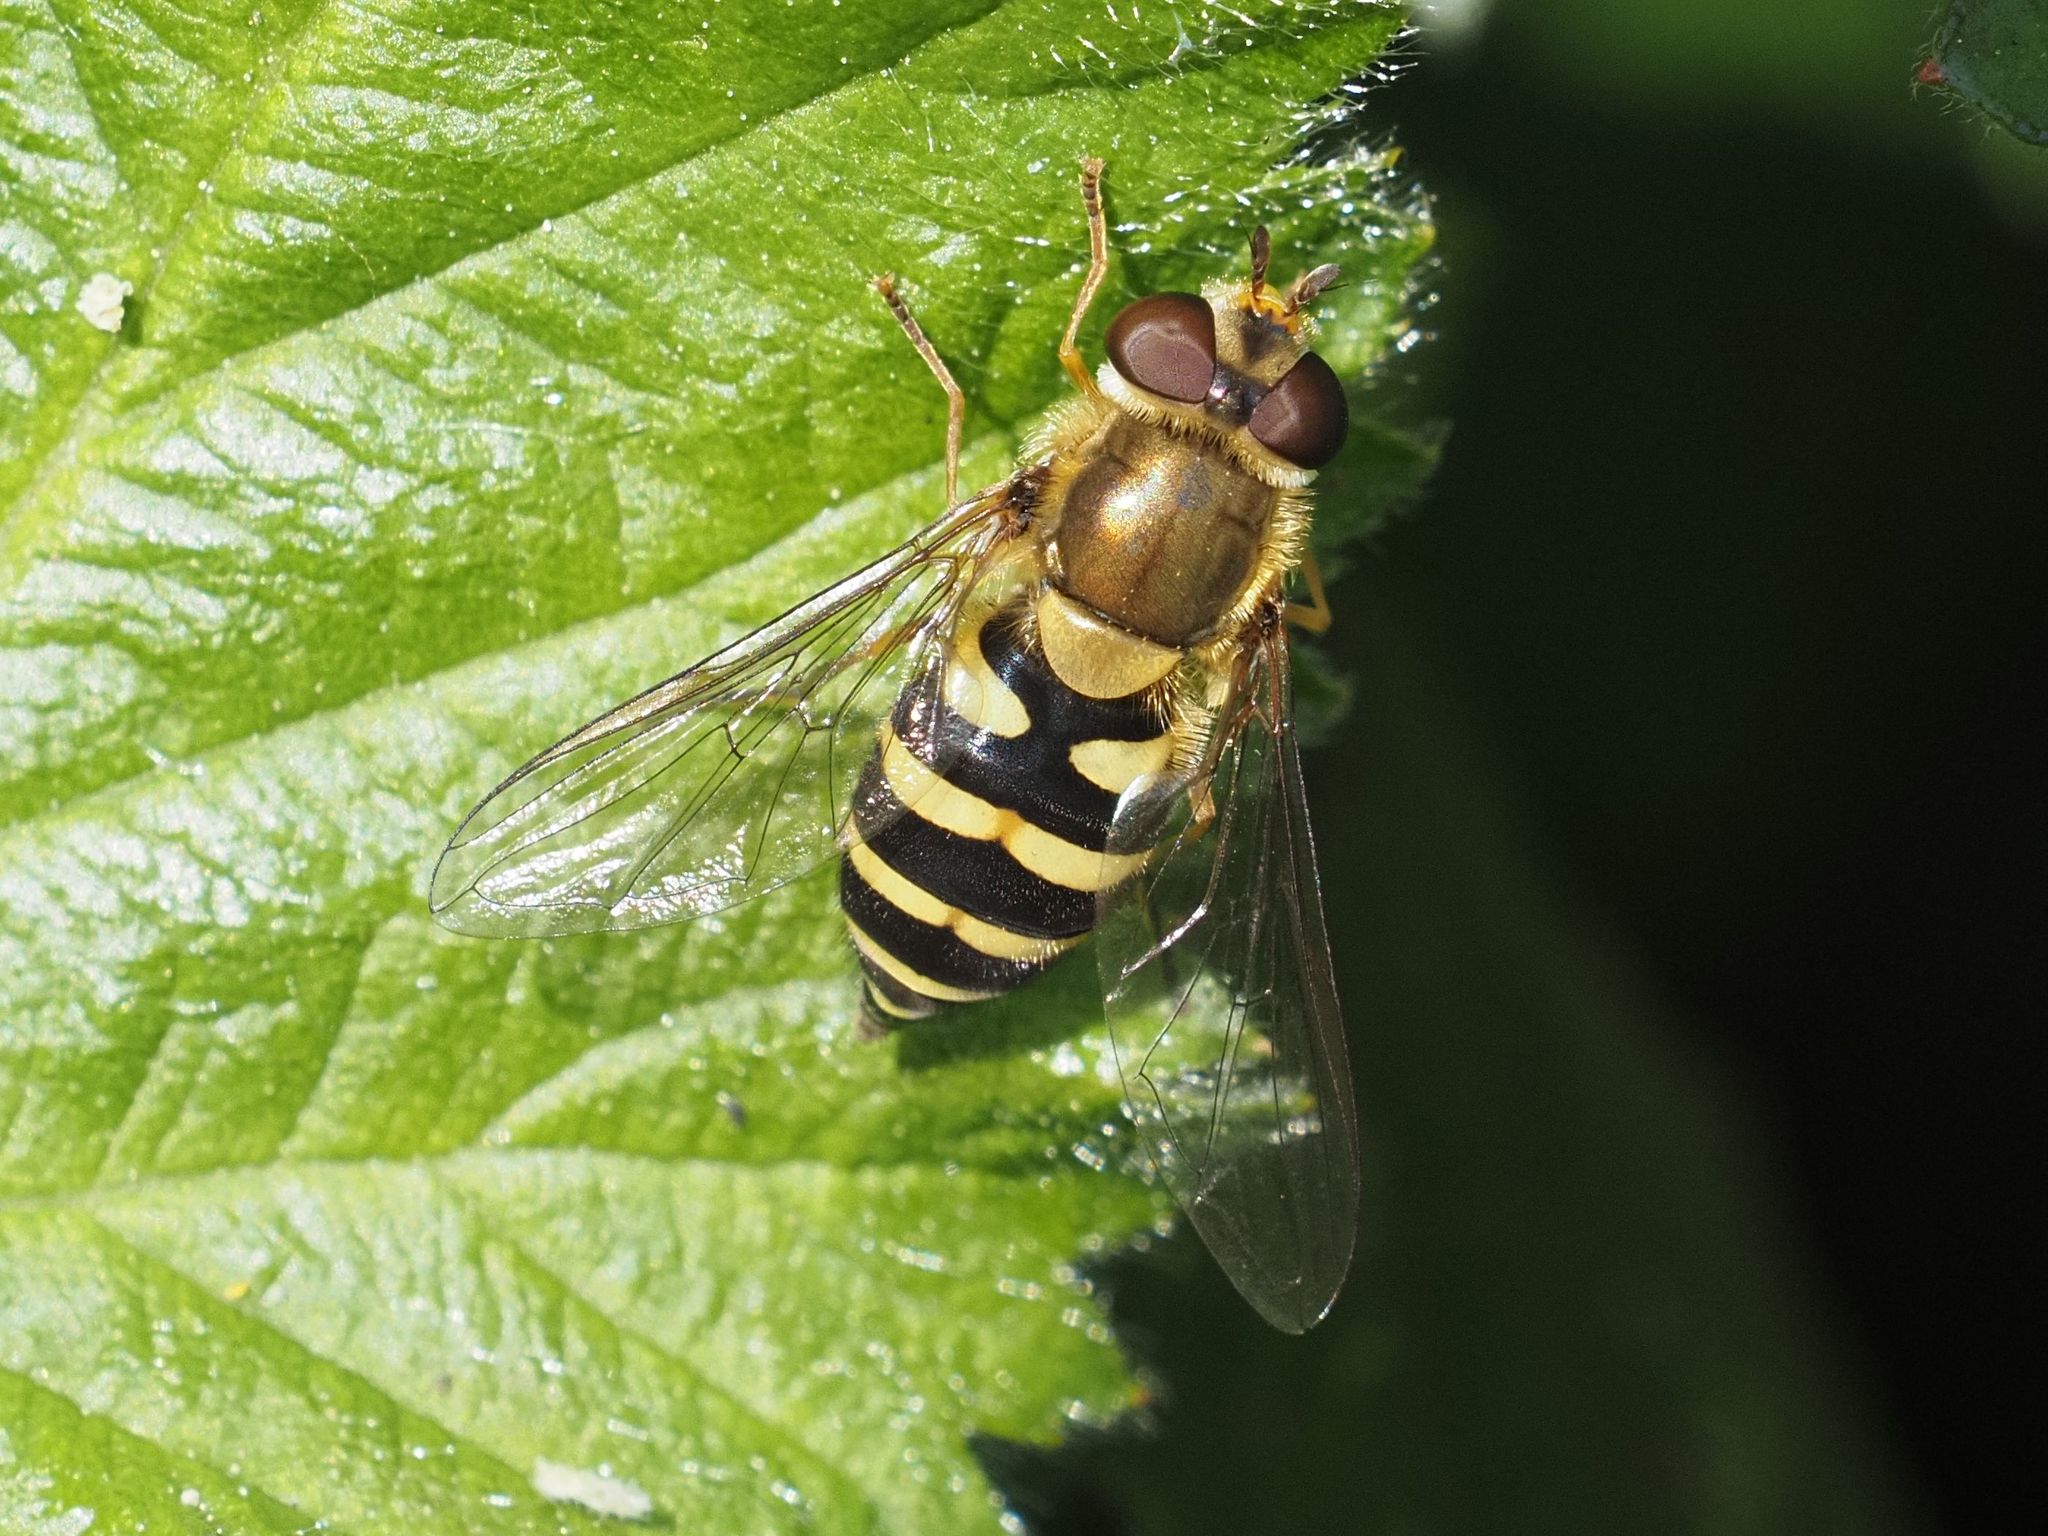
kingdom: Animalia
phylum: Arthropoda
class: Insecta
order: Diptera
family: Syrphidae
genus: Syrphus
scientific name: Syrphus
